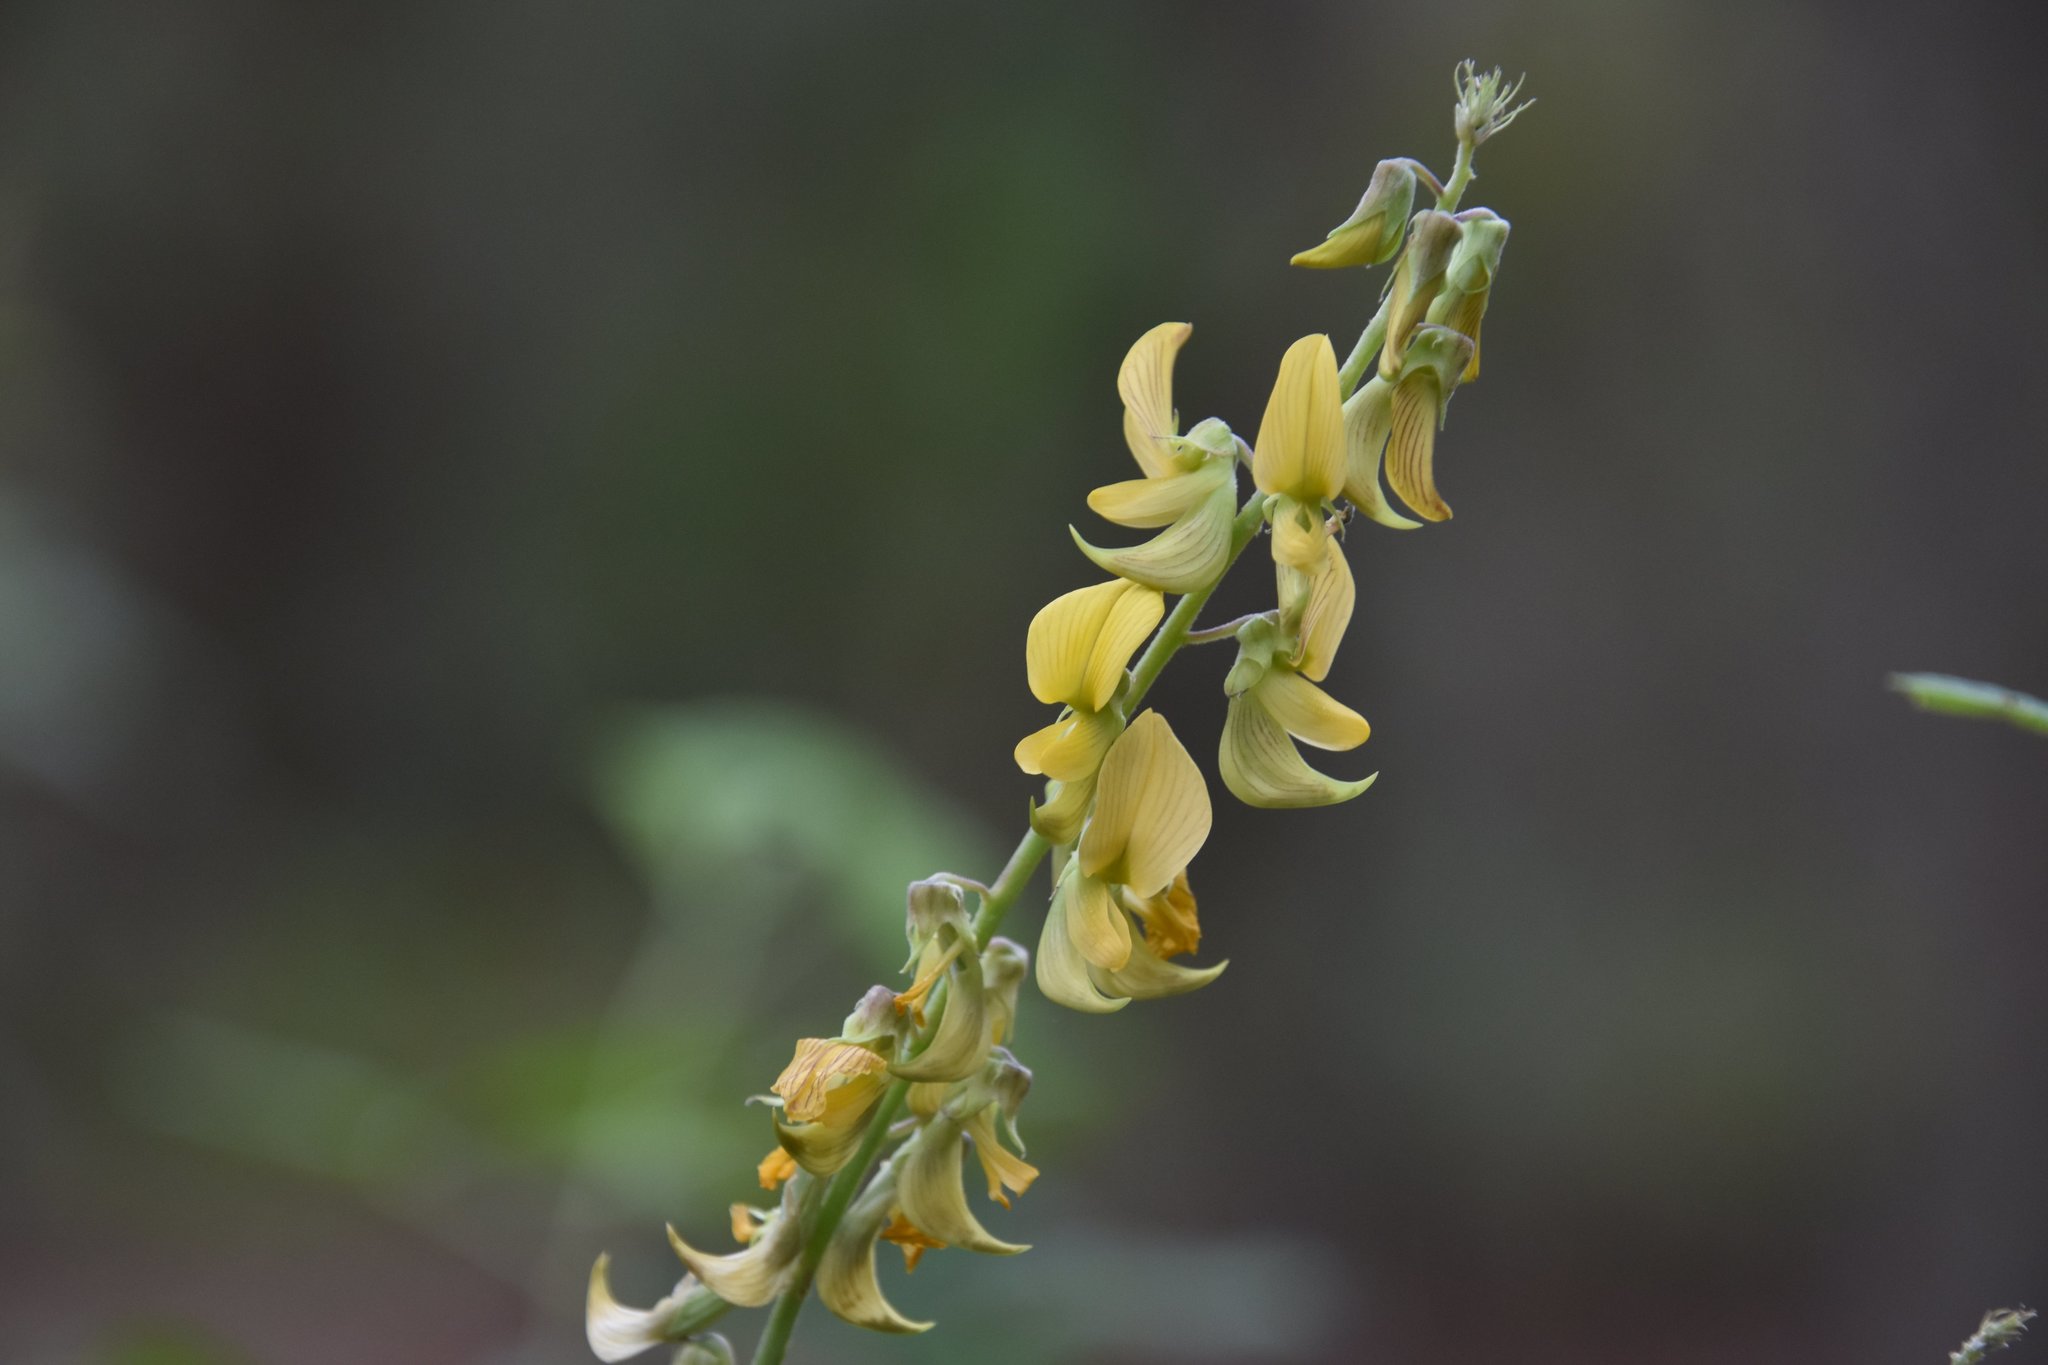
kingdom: Plantae
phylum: Tracheophyta
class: Magnoliopsida
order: Fabales
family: Fabaceae
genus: Crotalaria
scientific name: Crotalaria pallida
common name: Smooth rattlebox
